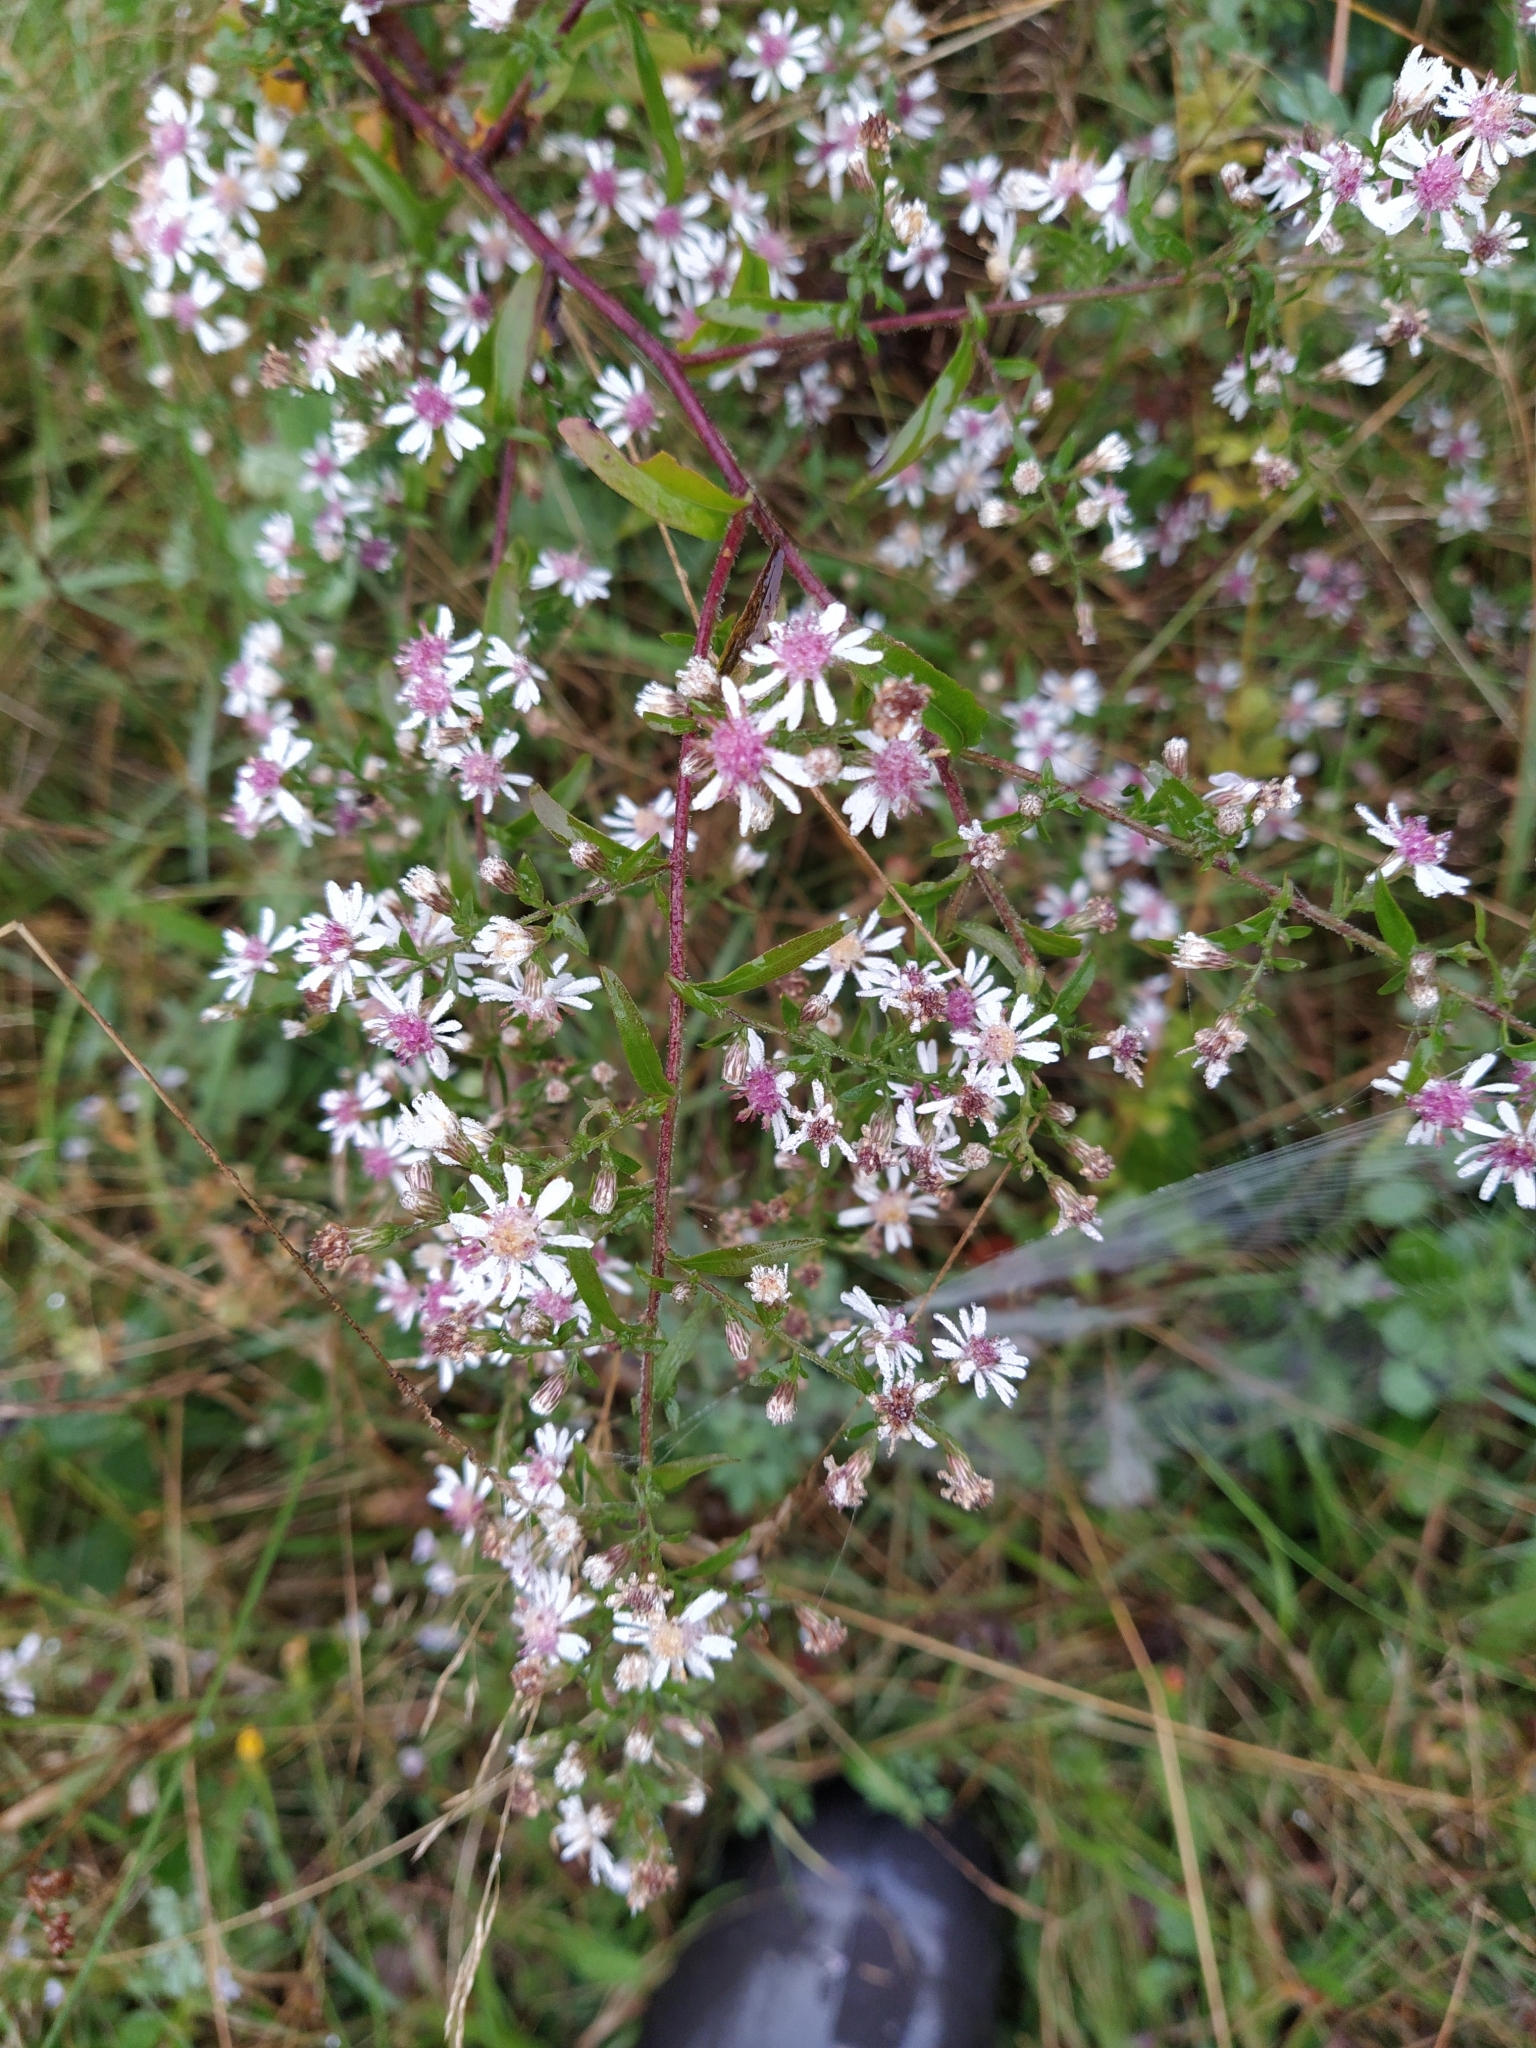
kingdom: Plantae
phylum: Tracheophyta
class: Magnoliopsida
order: Asterales
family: Asteraceae
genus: Symphyotrichum
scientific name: Symphyotrichum lateriflorum
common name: Calico aster
